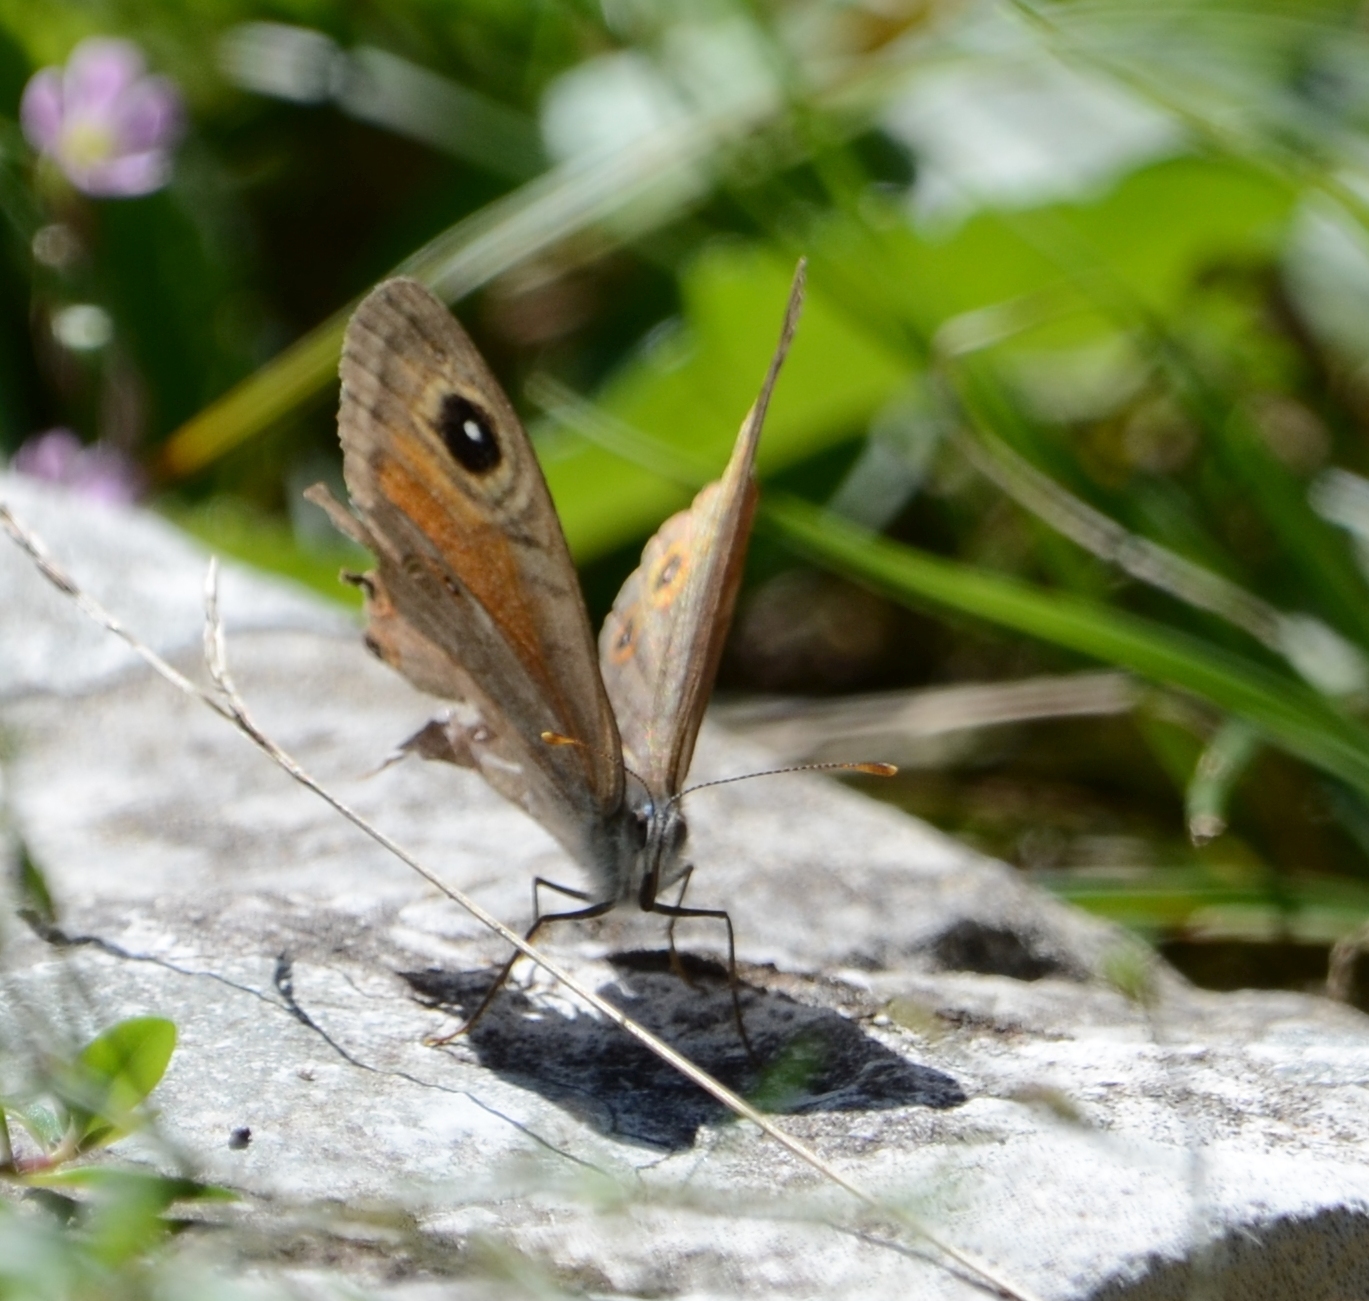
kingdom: Animalia
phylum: Arthropoda
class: Insecta
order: Lepidoptera
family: Nymphalidae
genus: Pararge
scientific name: Pararge Lasiommata maera
